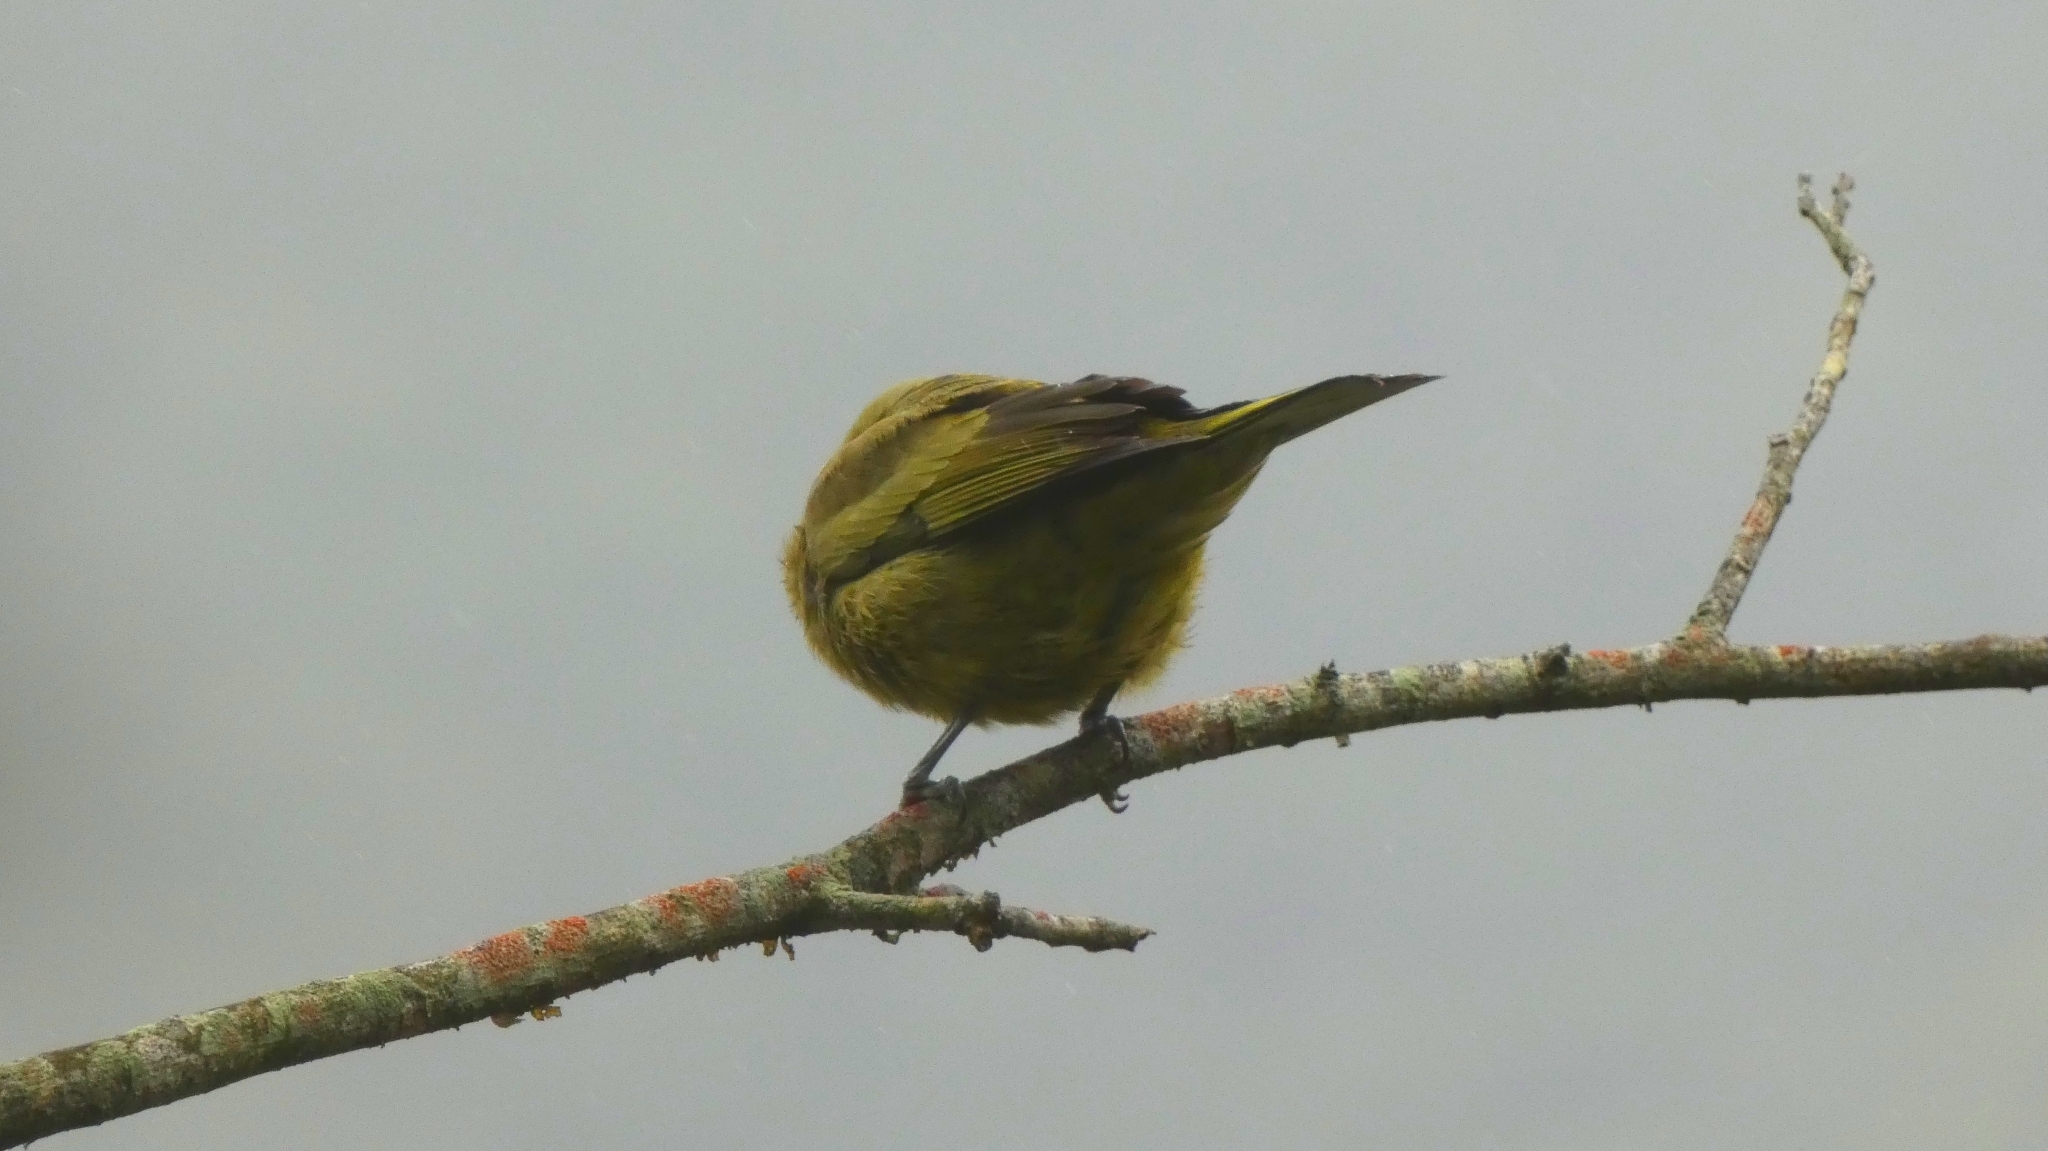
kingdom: Animalia
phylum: Chordata
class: Aves
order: Passeriformes
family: Thraupidae
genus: Thraupis
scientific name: Thraupis palmarum
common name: Palm tanager
